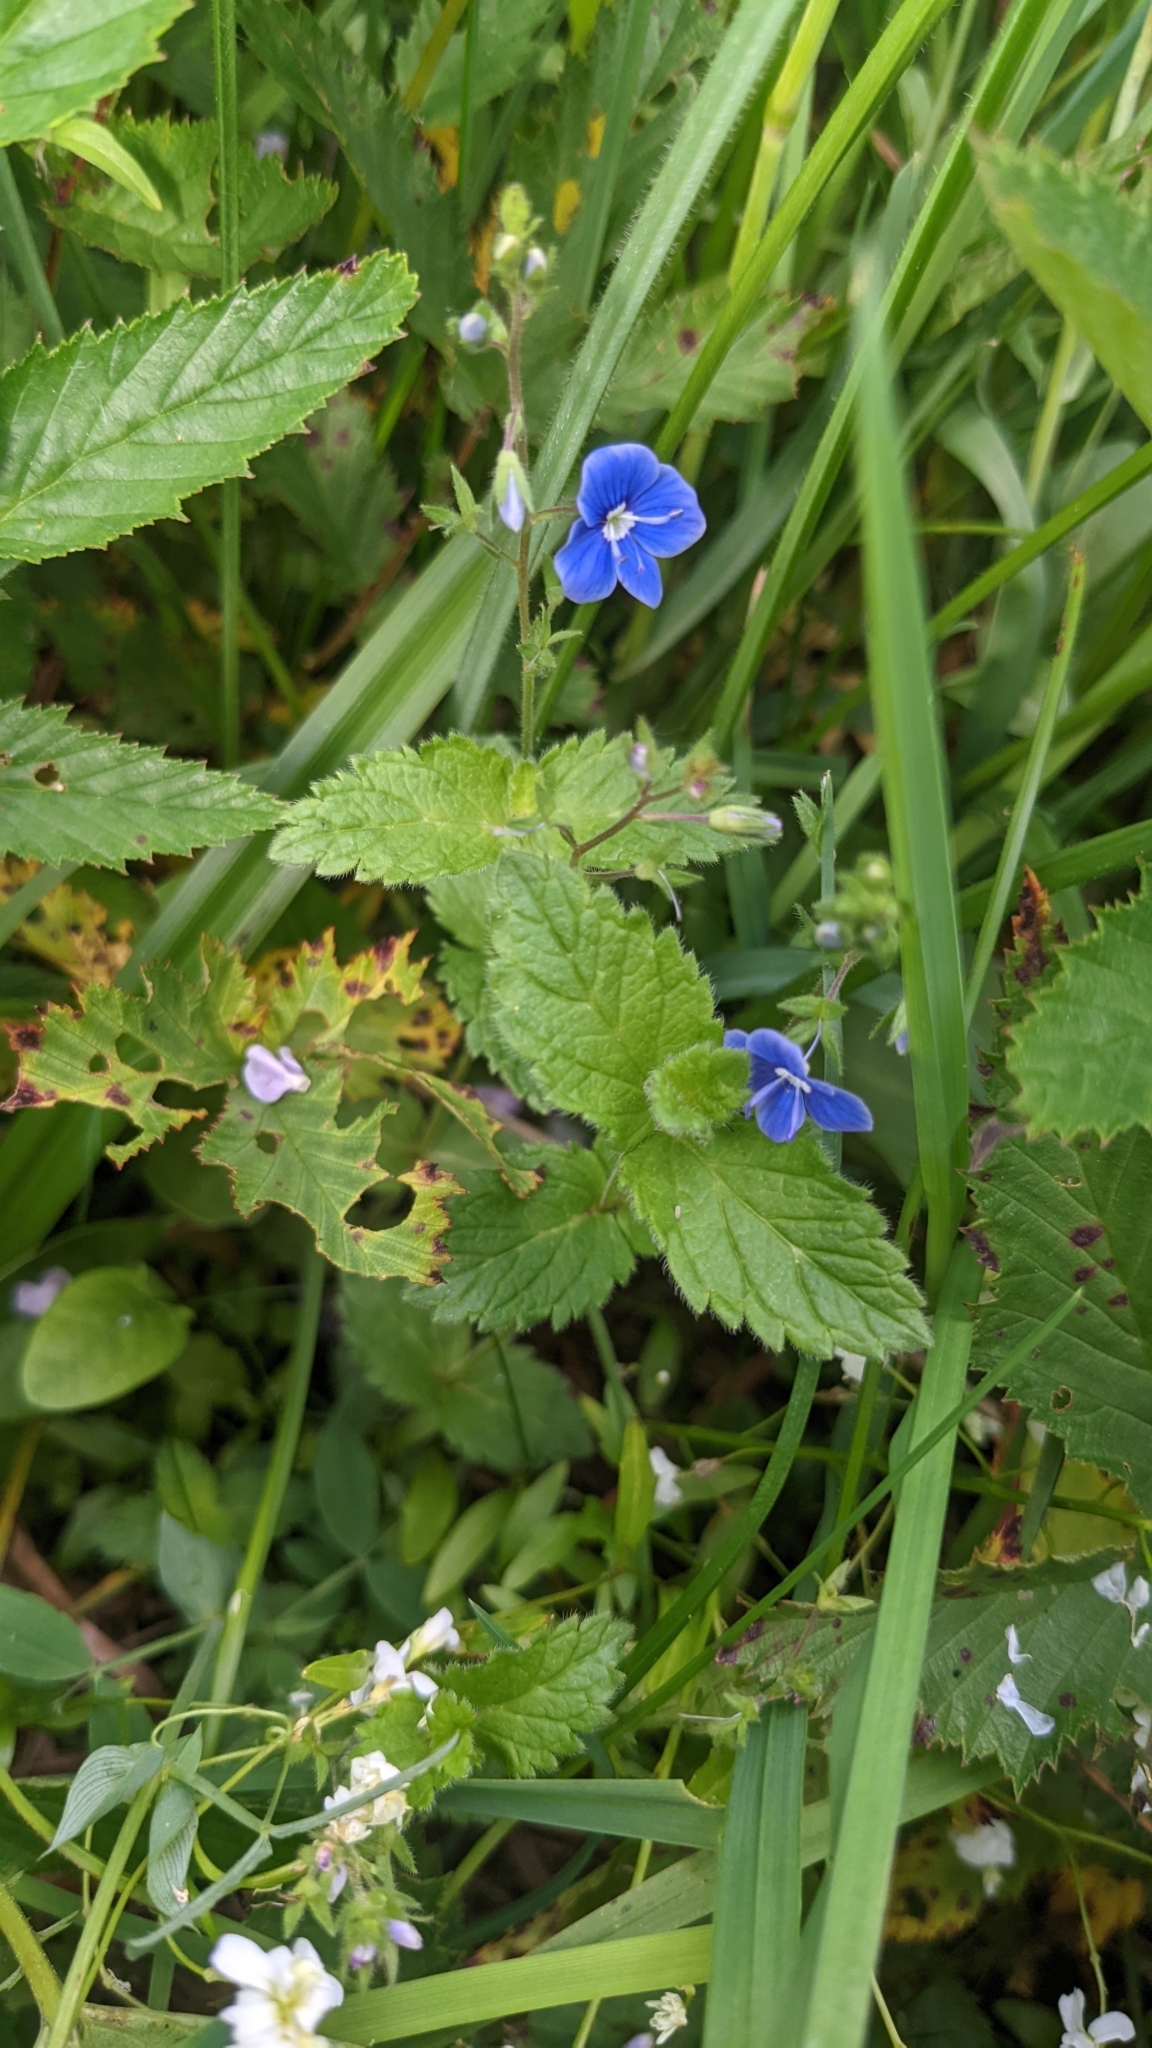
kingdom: Plantae
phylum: Tracheophyta
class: Magnoliopsida
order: Lamiales
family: Plantaginaceae
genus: Veronica
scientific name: Veronica chamaedrys
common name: Germander speedwell
